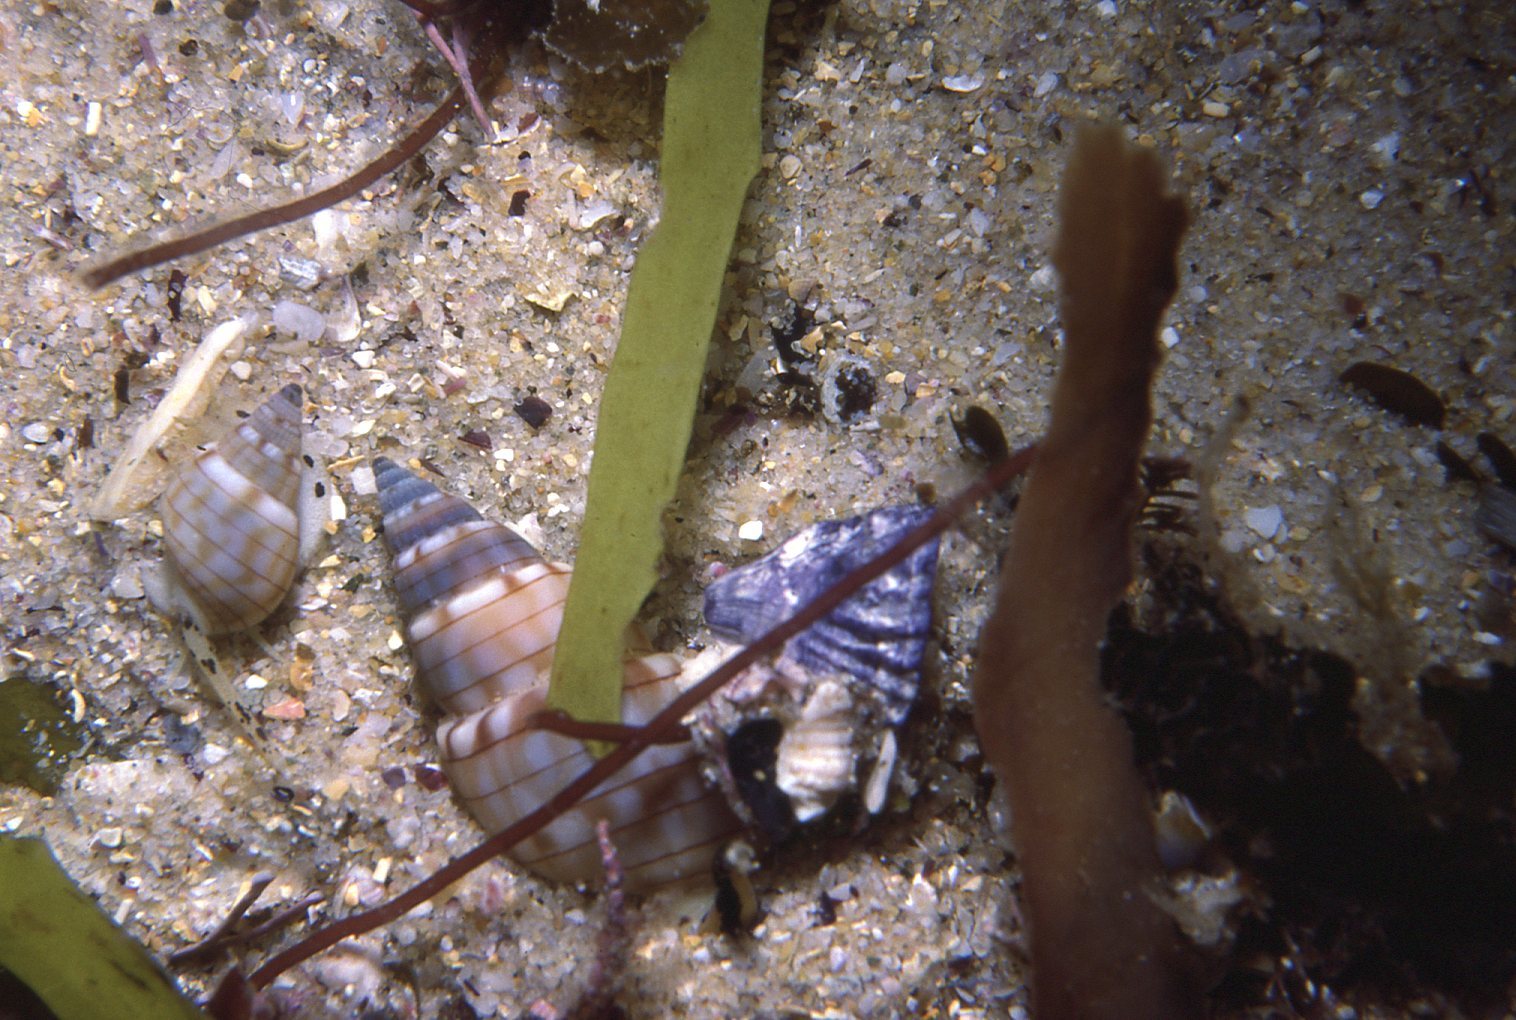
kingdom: Animalia
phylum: Mollusca
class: Gastropoda
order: Neogastropoda
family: Nassariidae
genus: Nassarius
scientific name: Nassarius particeps
